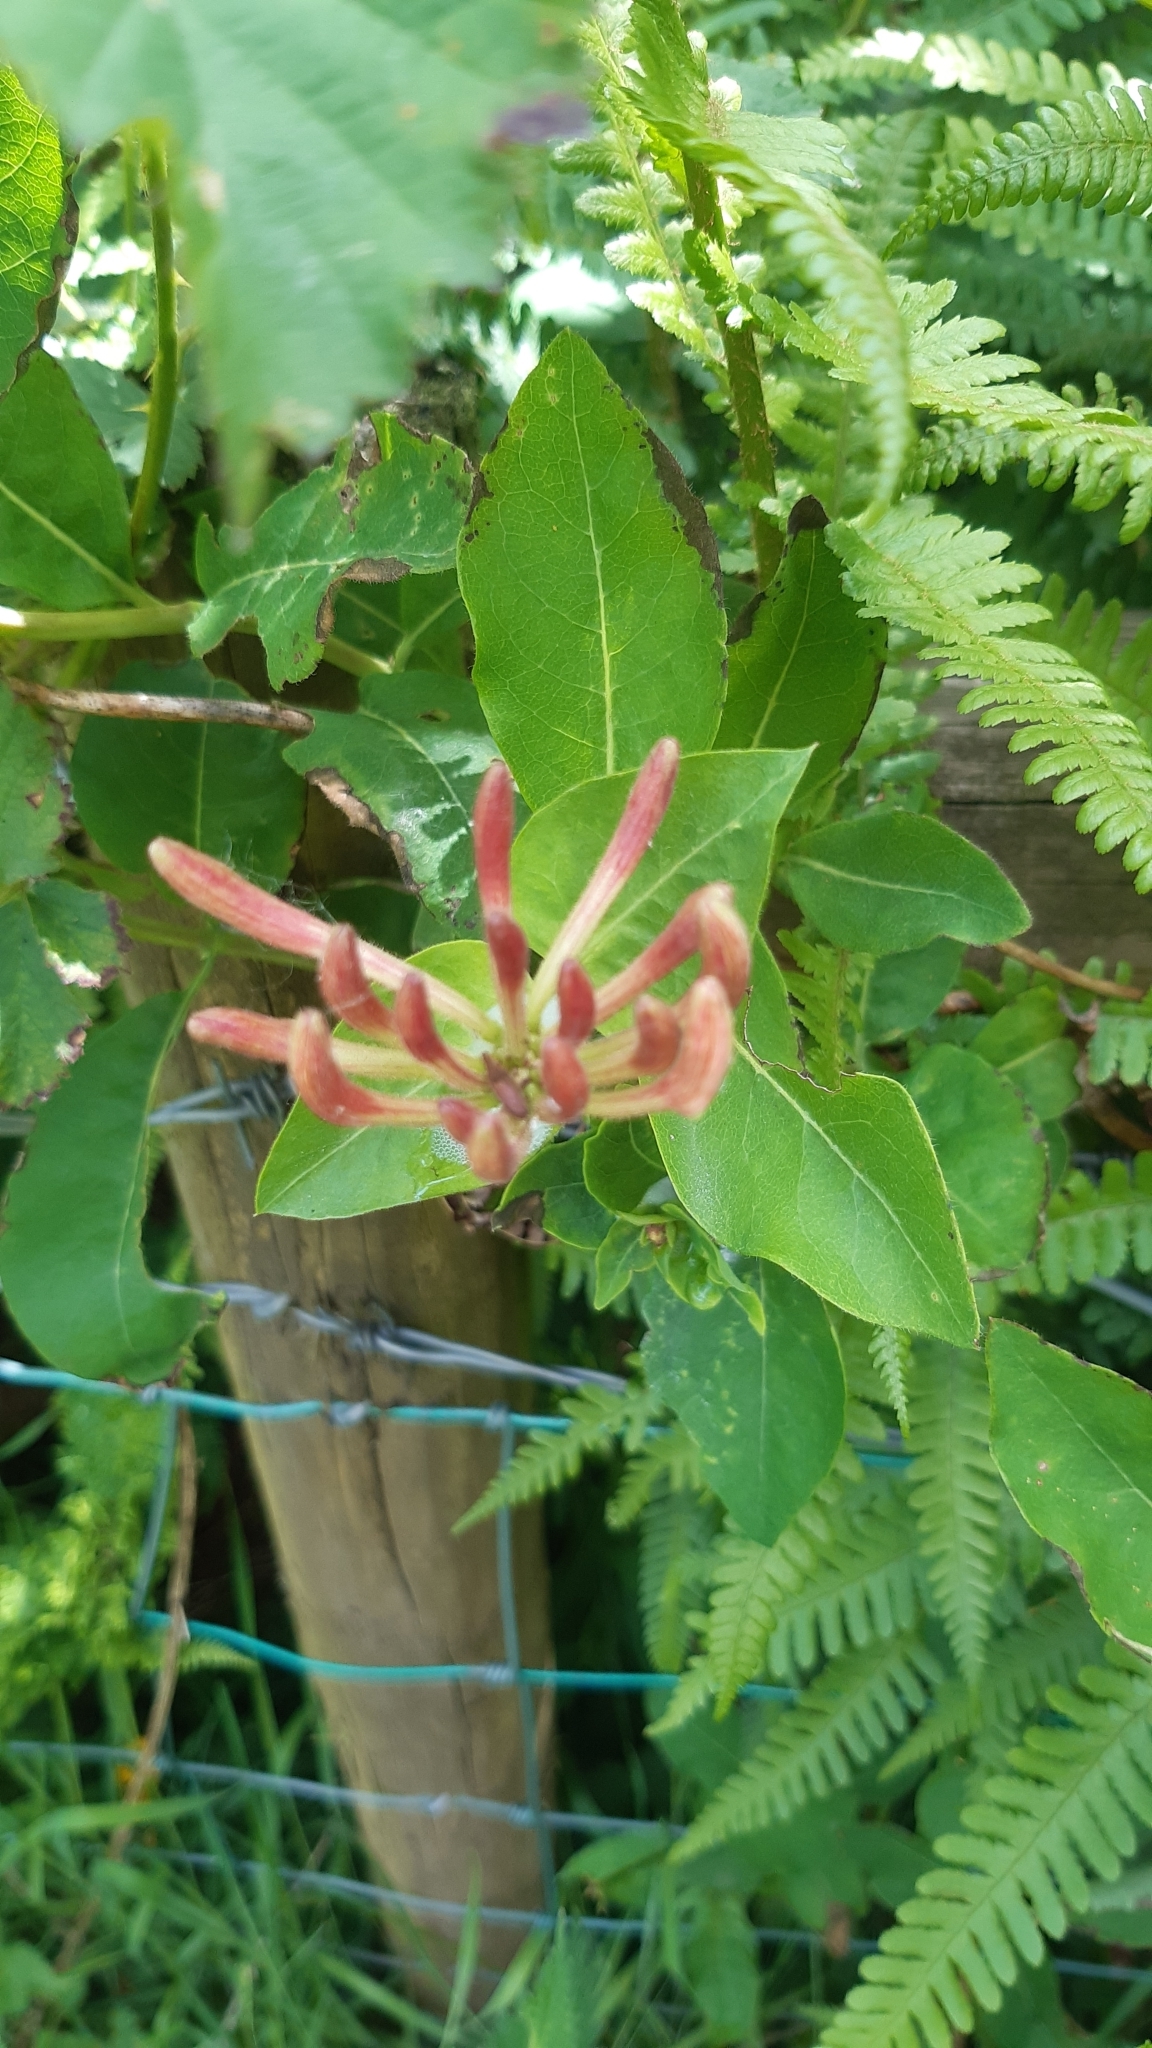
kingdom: Plantae
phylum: Tracheophyta
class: Magnoliopsida
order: Dipsacales
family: Caprifoliaceae
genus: Lonicera
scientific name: Lonicera periclymenum
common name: European honeysuckle
